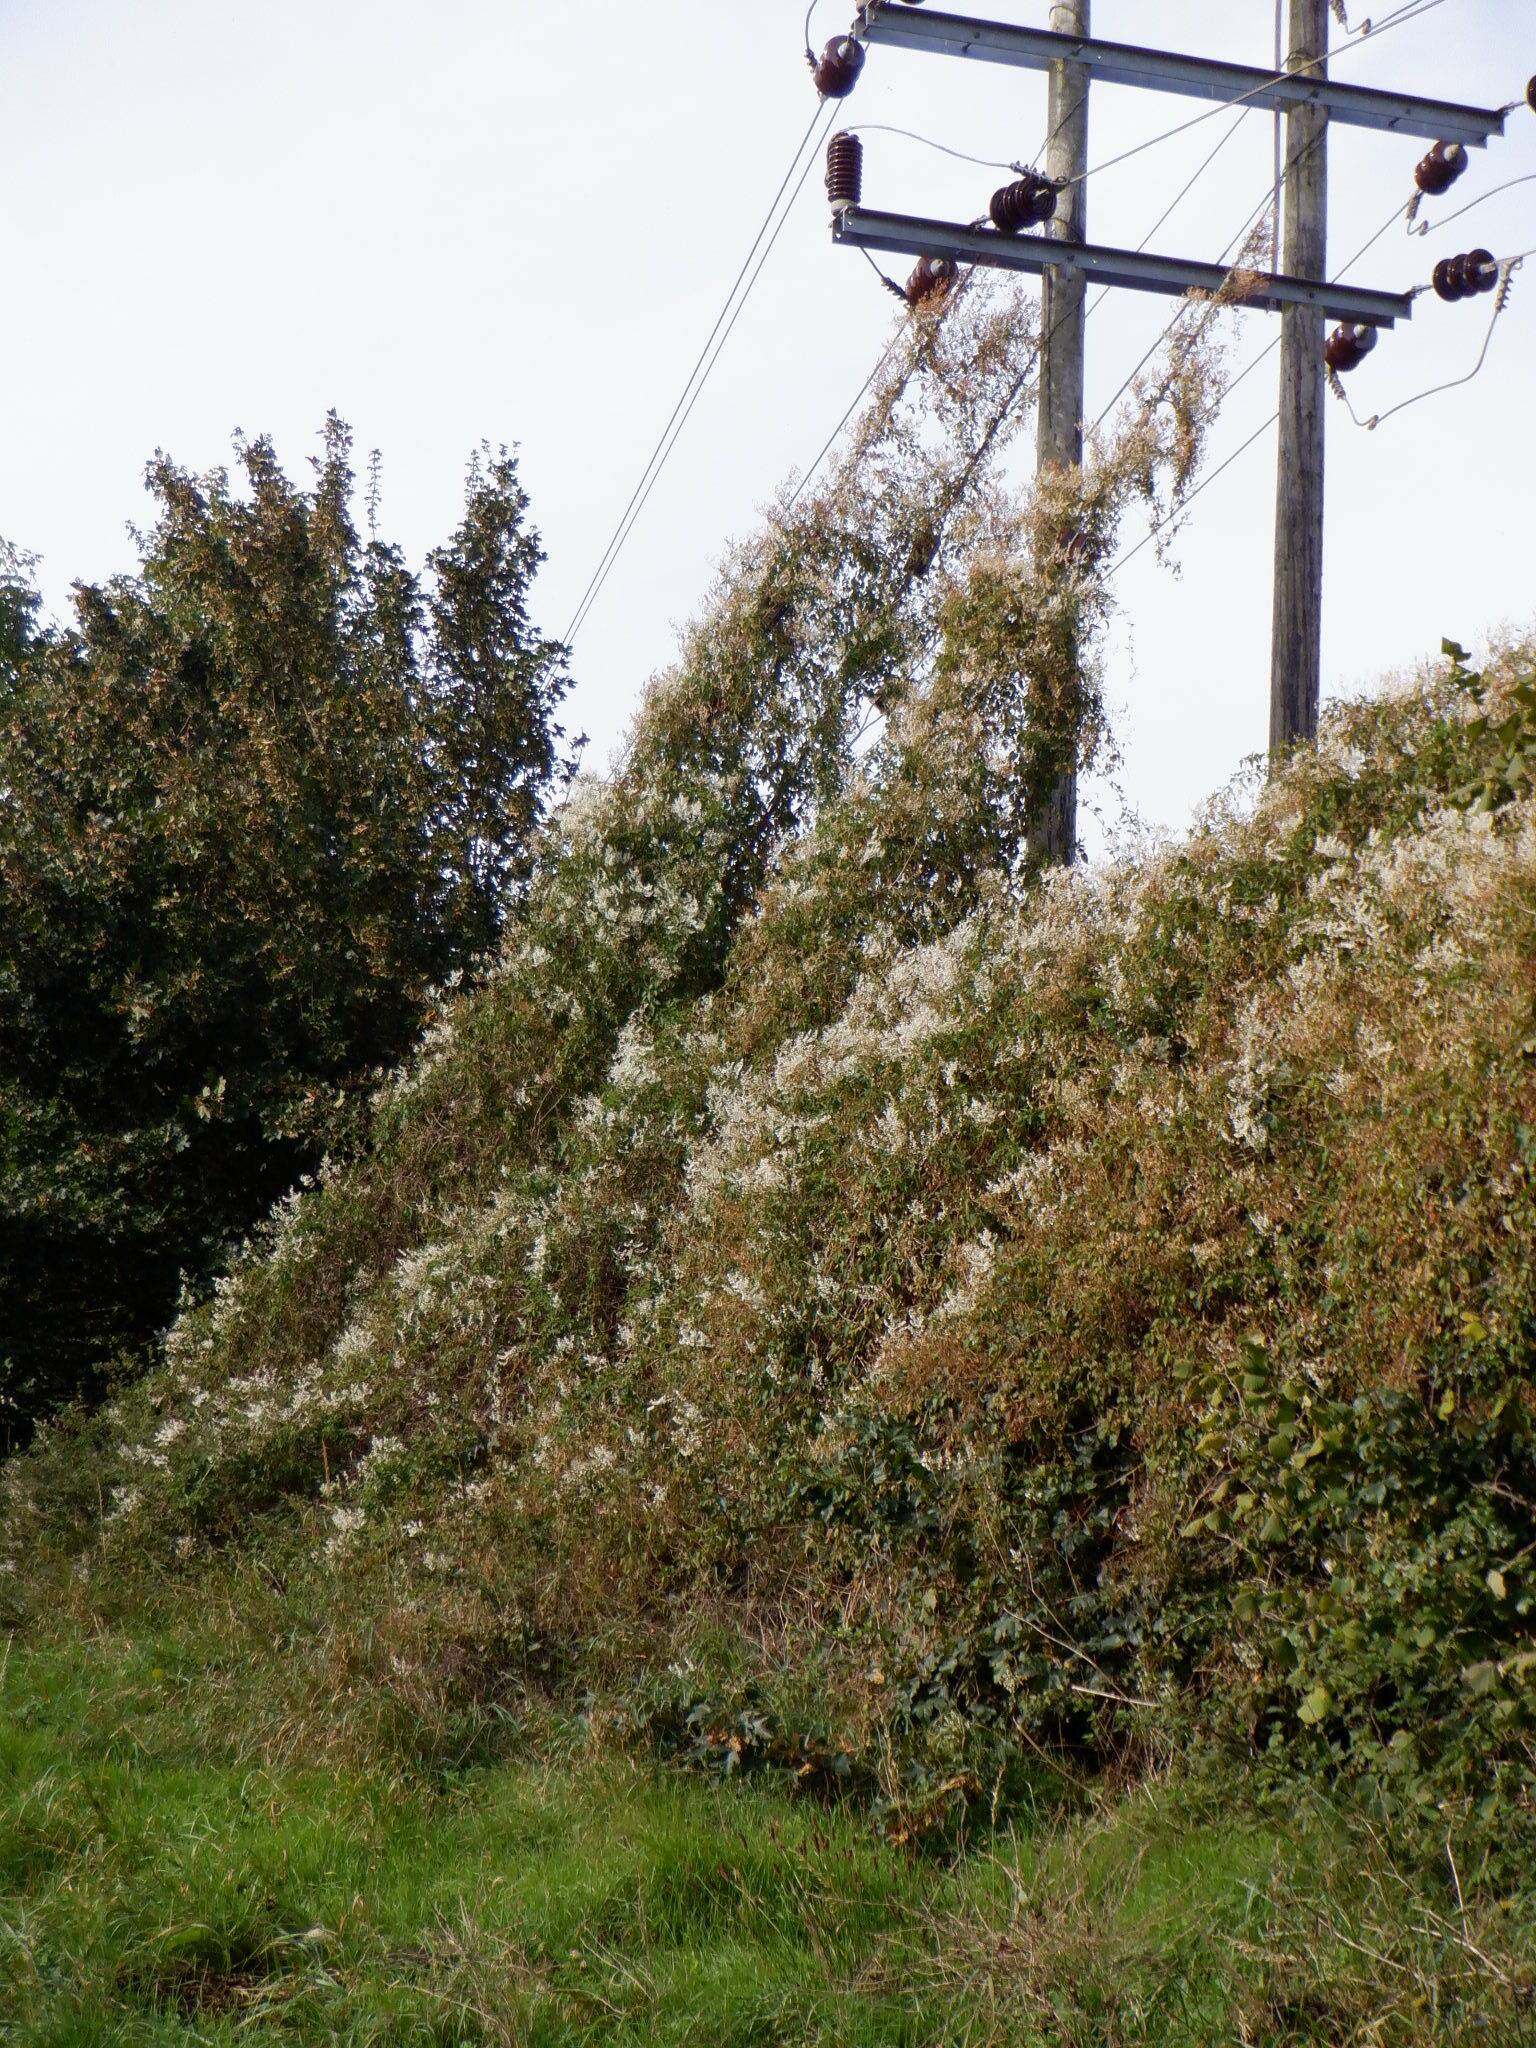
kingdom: Plantae
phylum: Tracheophyta
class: Magnoliopsida
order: Caryophyllales
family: Polygonaceae
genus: Fallopia
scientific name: Fallopia baldschuanica
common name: Russian-vine
